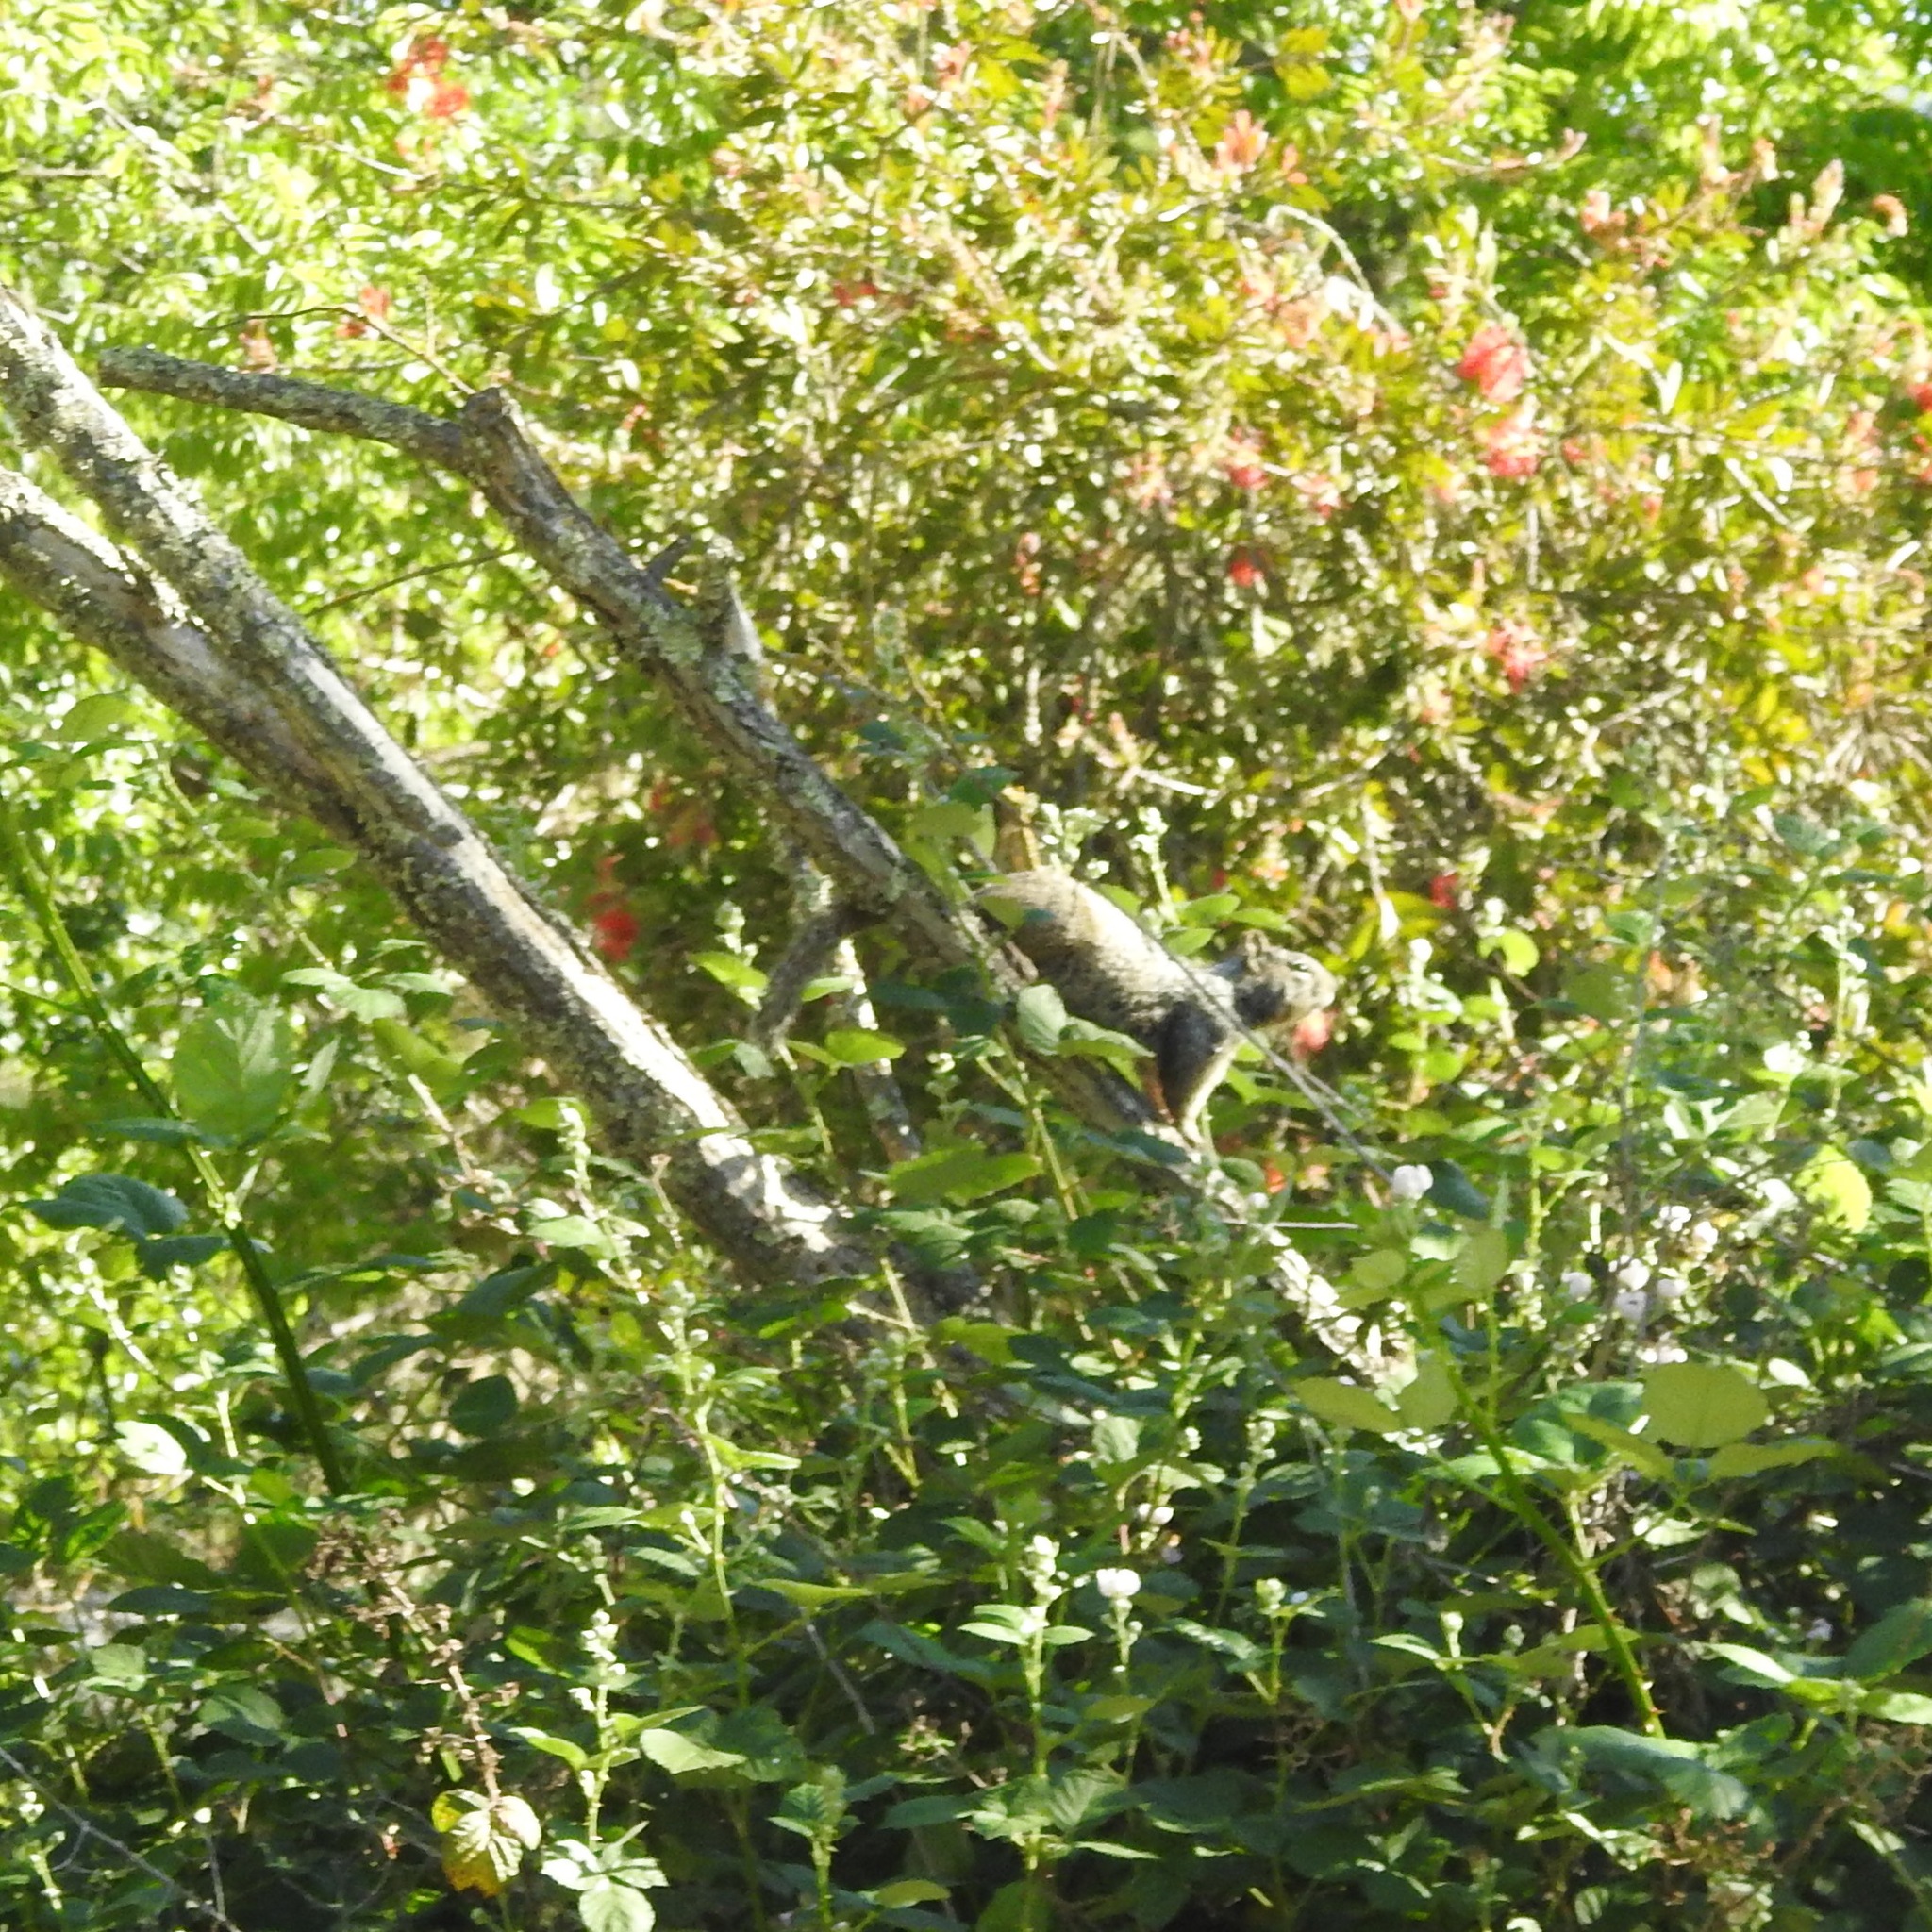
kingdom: Animalia
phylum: Chordata
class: Mammalia
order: Rodentia
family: Sciuridae
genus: Otospermophilus
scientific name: Otospermophilus beecheyi
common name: California ground squirrel
